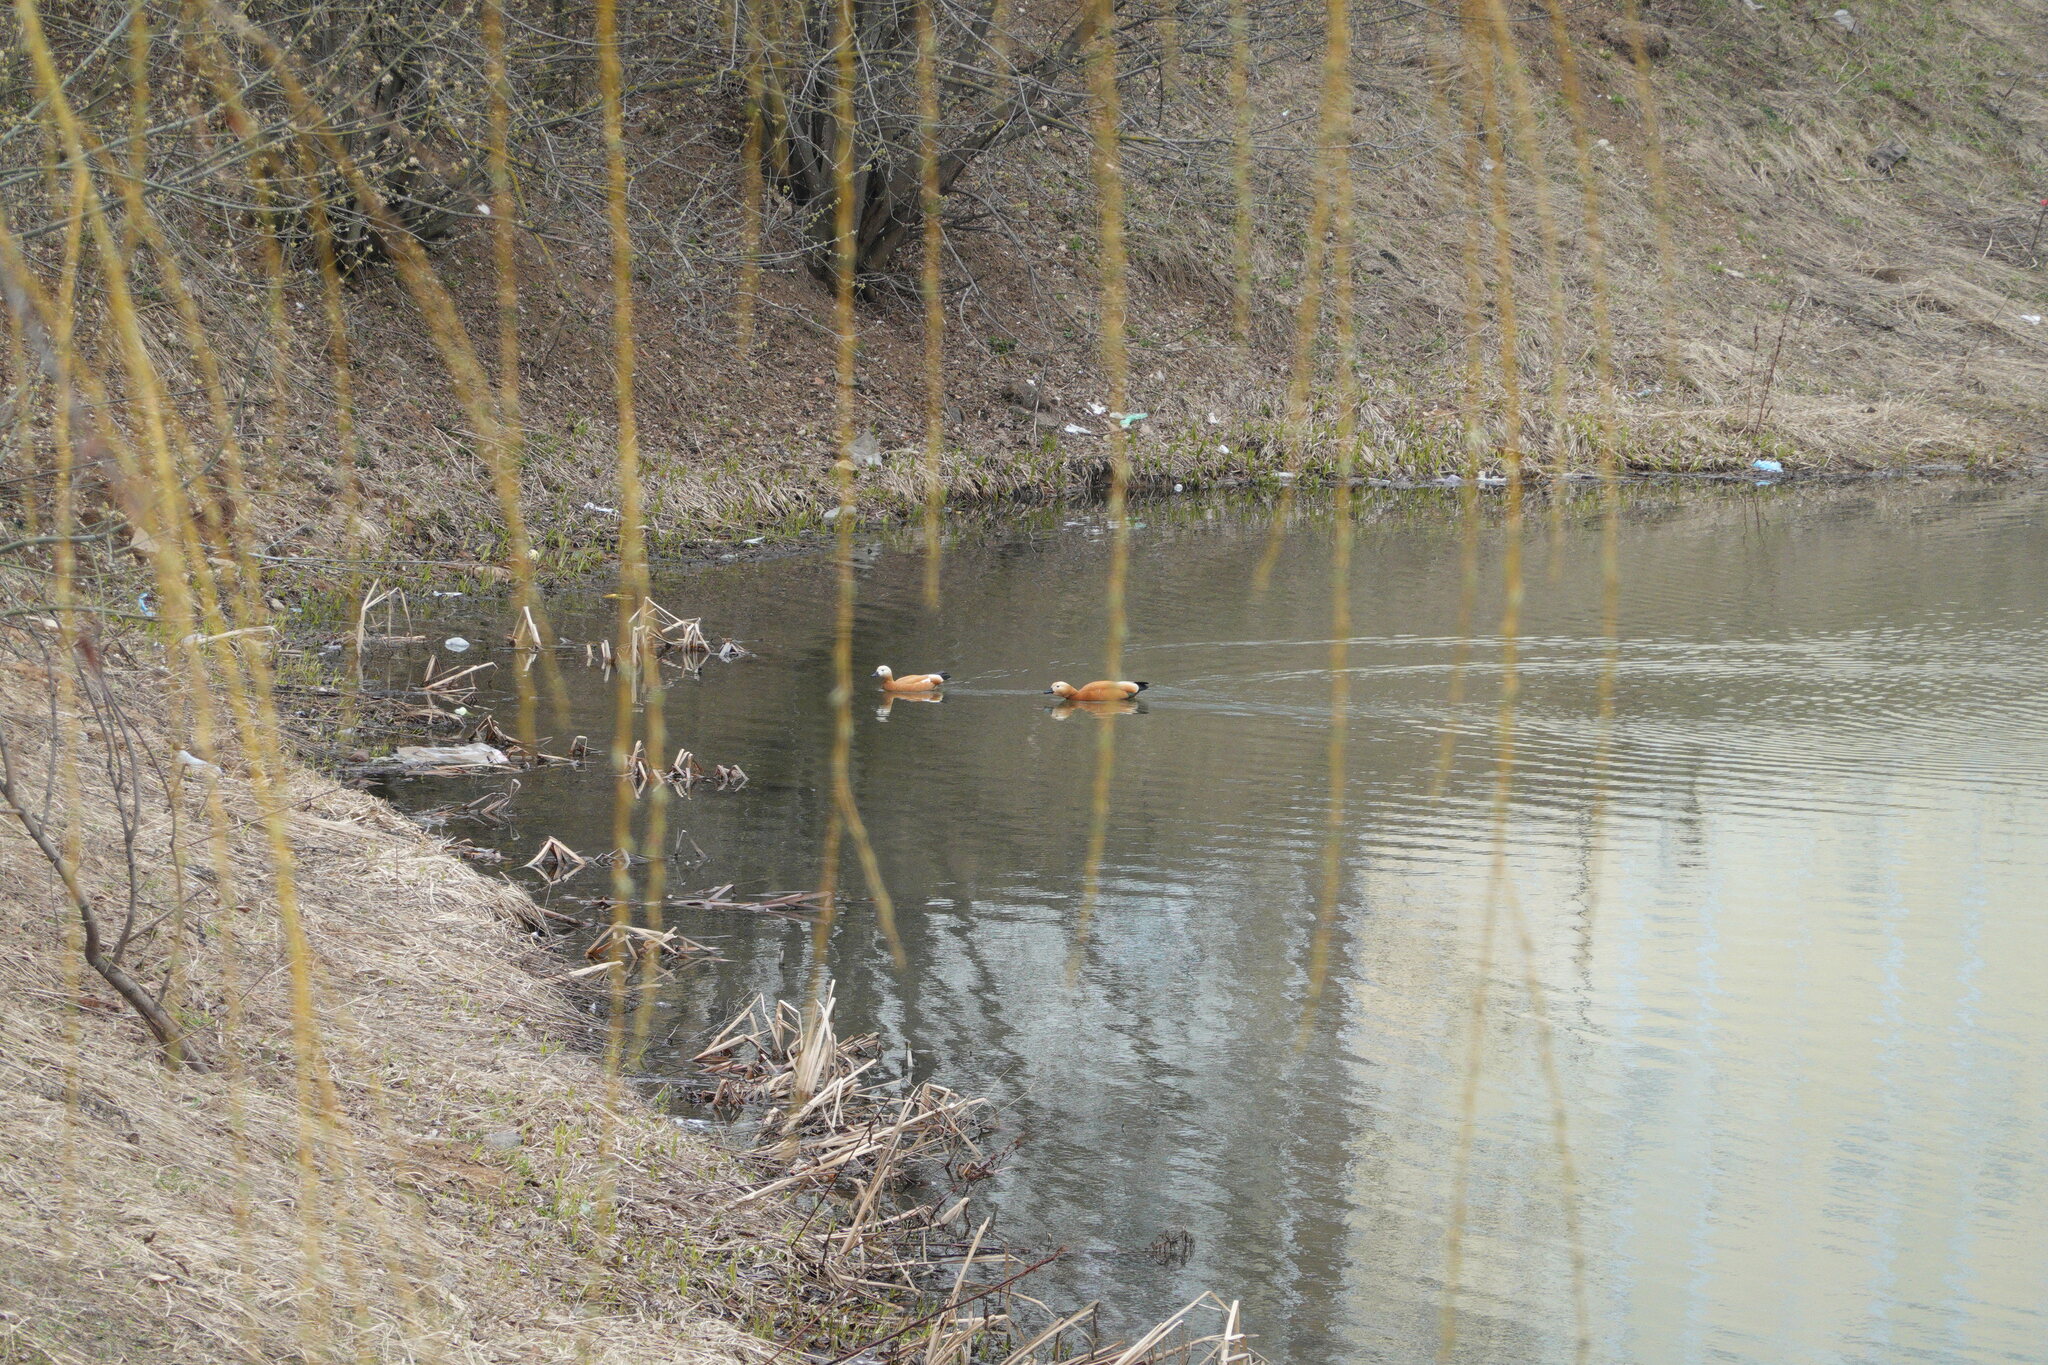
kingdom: Animalia
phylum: Chordata
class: Aves
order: Anseriformes
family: Anatidae
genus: Tadorna
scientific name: Tadorna ferruginea
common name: Ruddy shelduck
